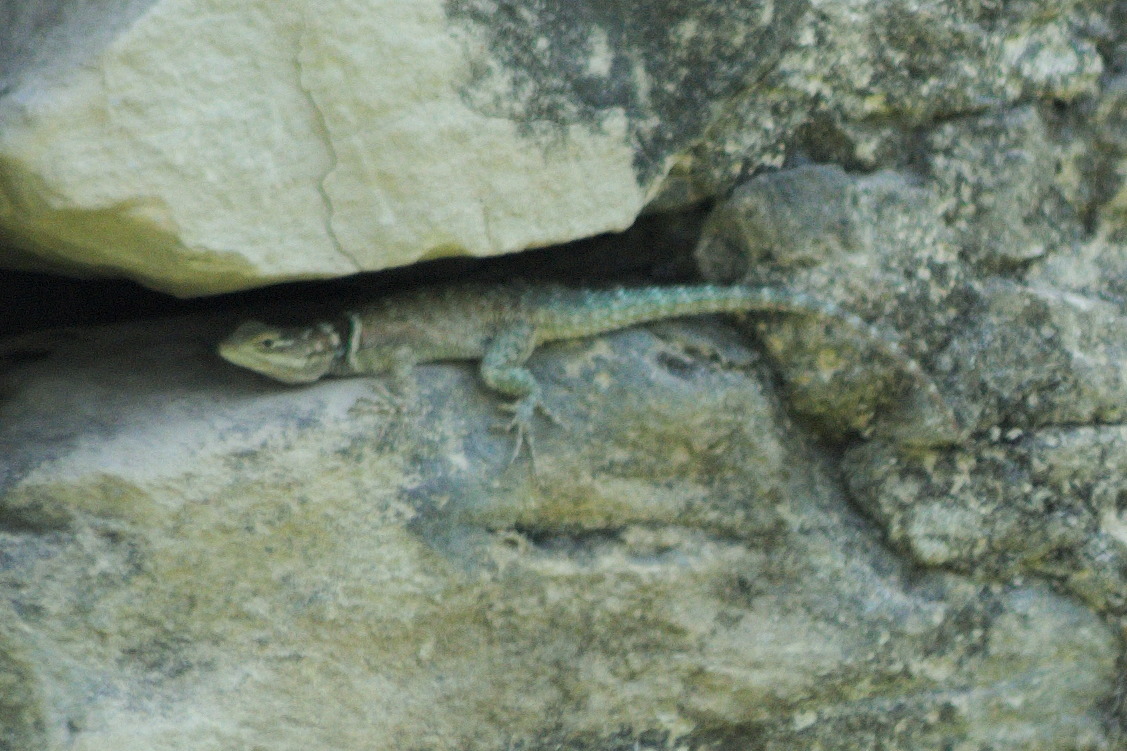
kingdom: Animalia
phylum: Chordata
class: Squamata
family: Phrynosomatidae
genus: Sceloporus
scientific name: Sceloporus cyanogenys
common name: Blue spiny lizard
